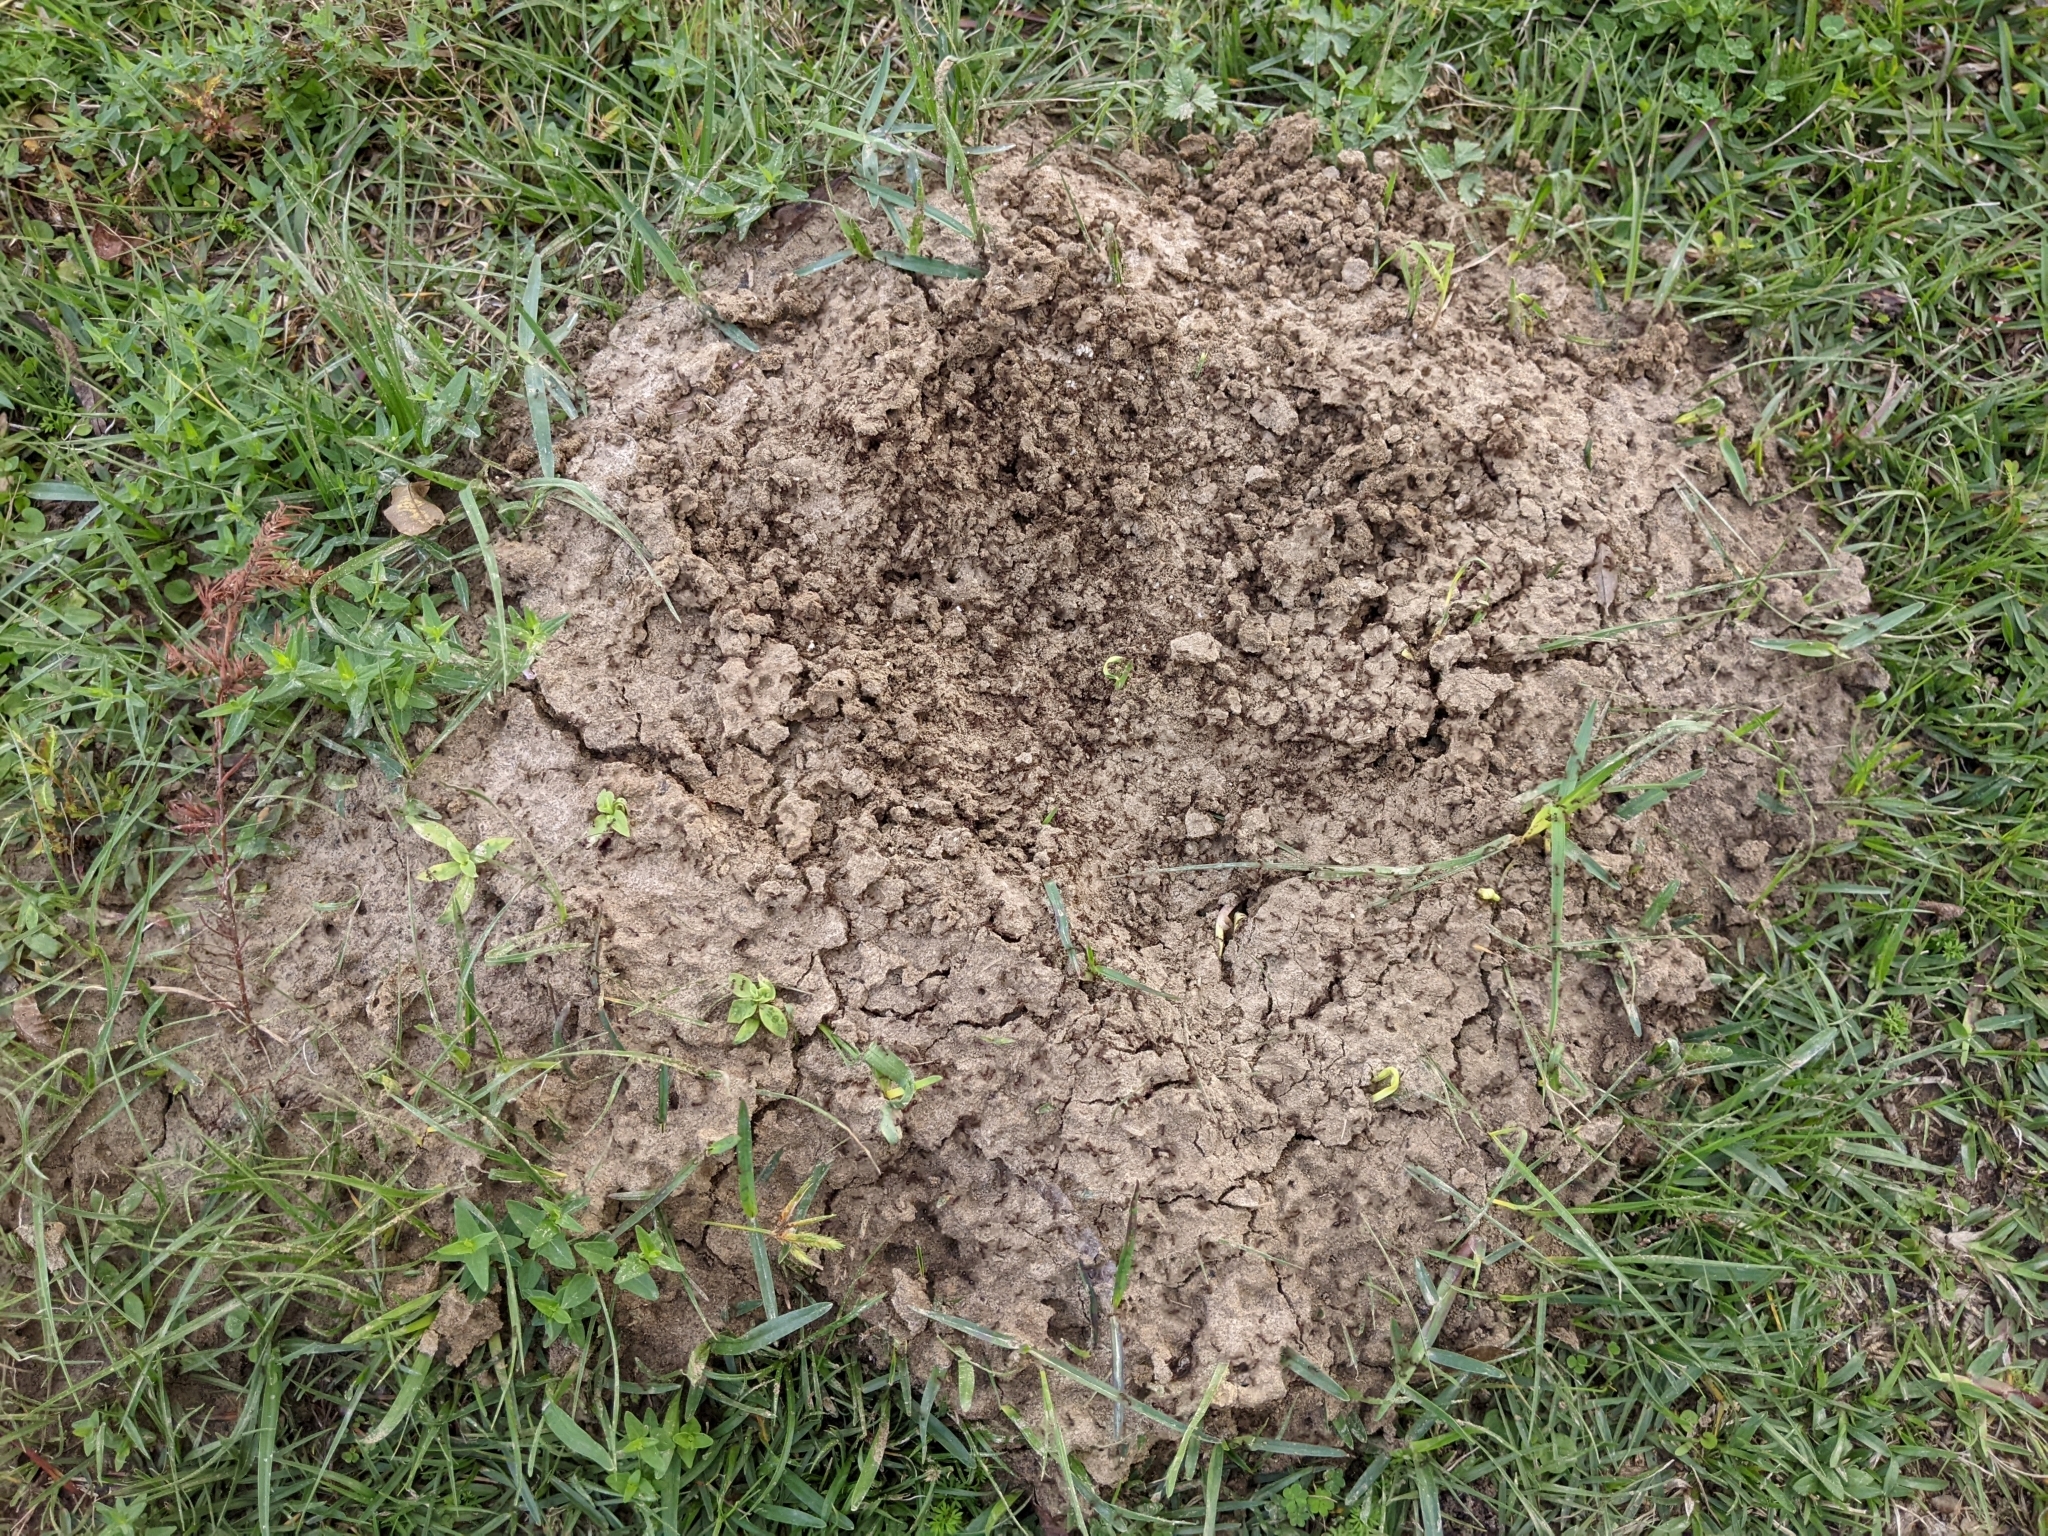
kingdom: Animalia
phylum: Arthropoda
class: Insecta
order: Hymenoptera
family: Formicidae
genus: Solenopsis
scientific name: Solenopsis invicta
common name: Red imported fire ant
